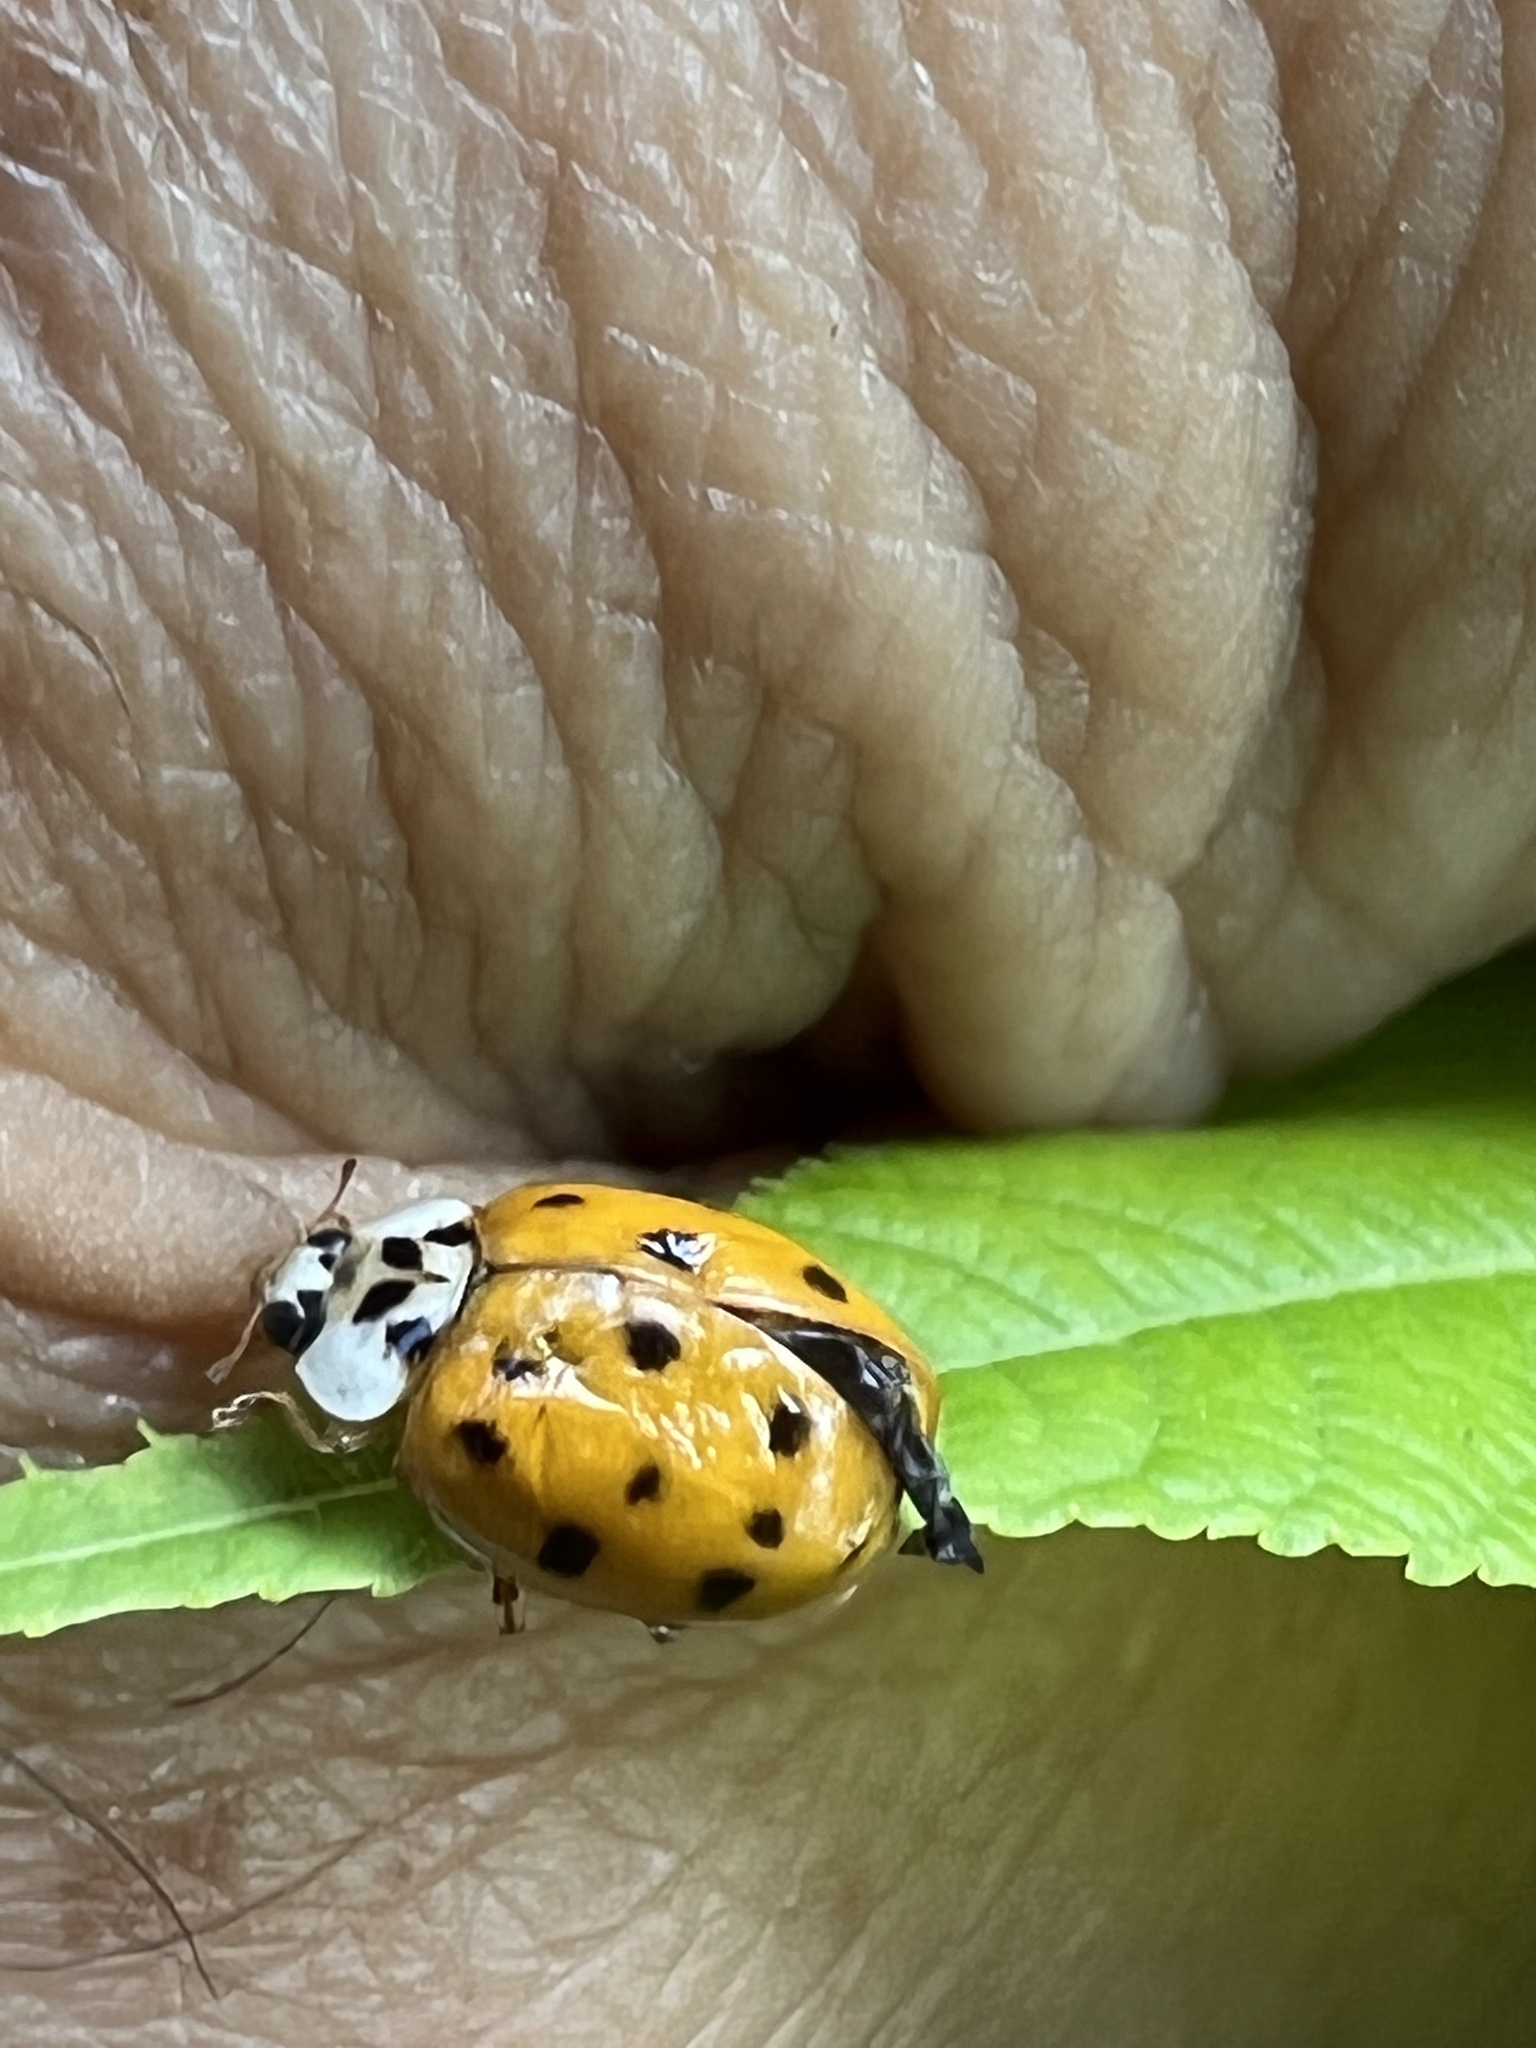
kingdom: Animalia
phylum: Arthropoda
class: Insecta
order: Coleoptera
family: Coccinellidae
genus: Harmonia
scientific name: Harmonia axyridis
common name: Harlequin ladybird
